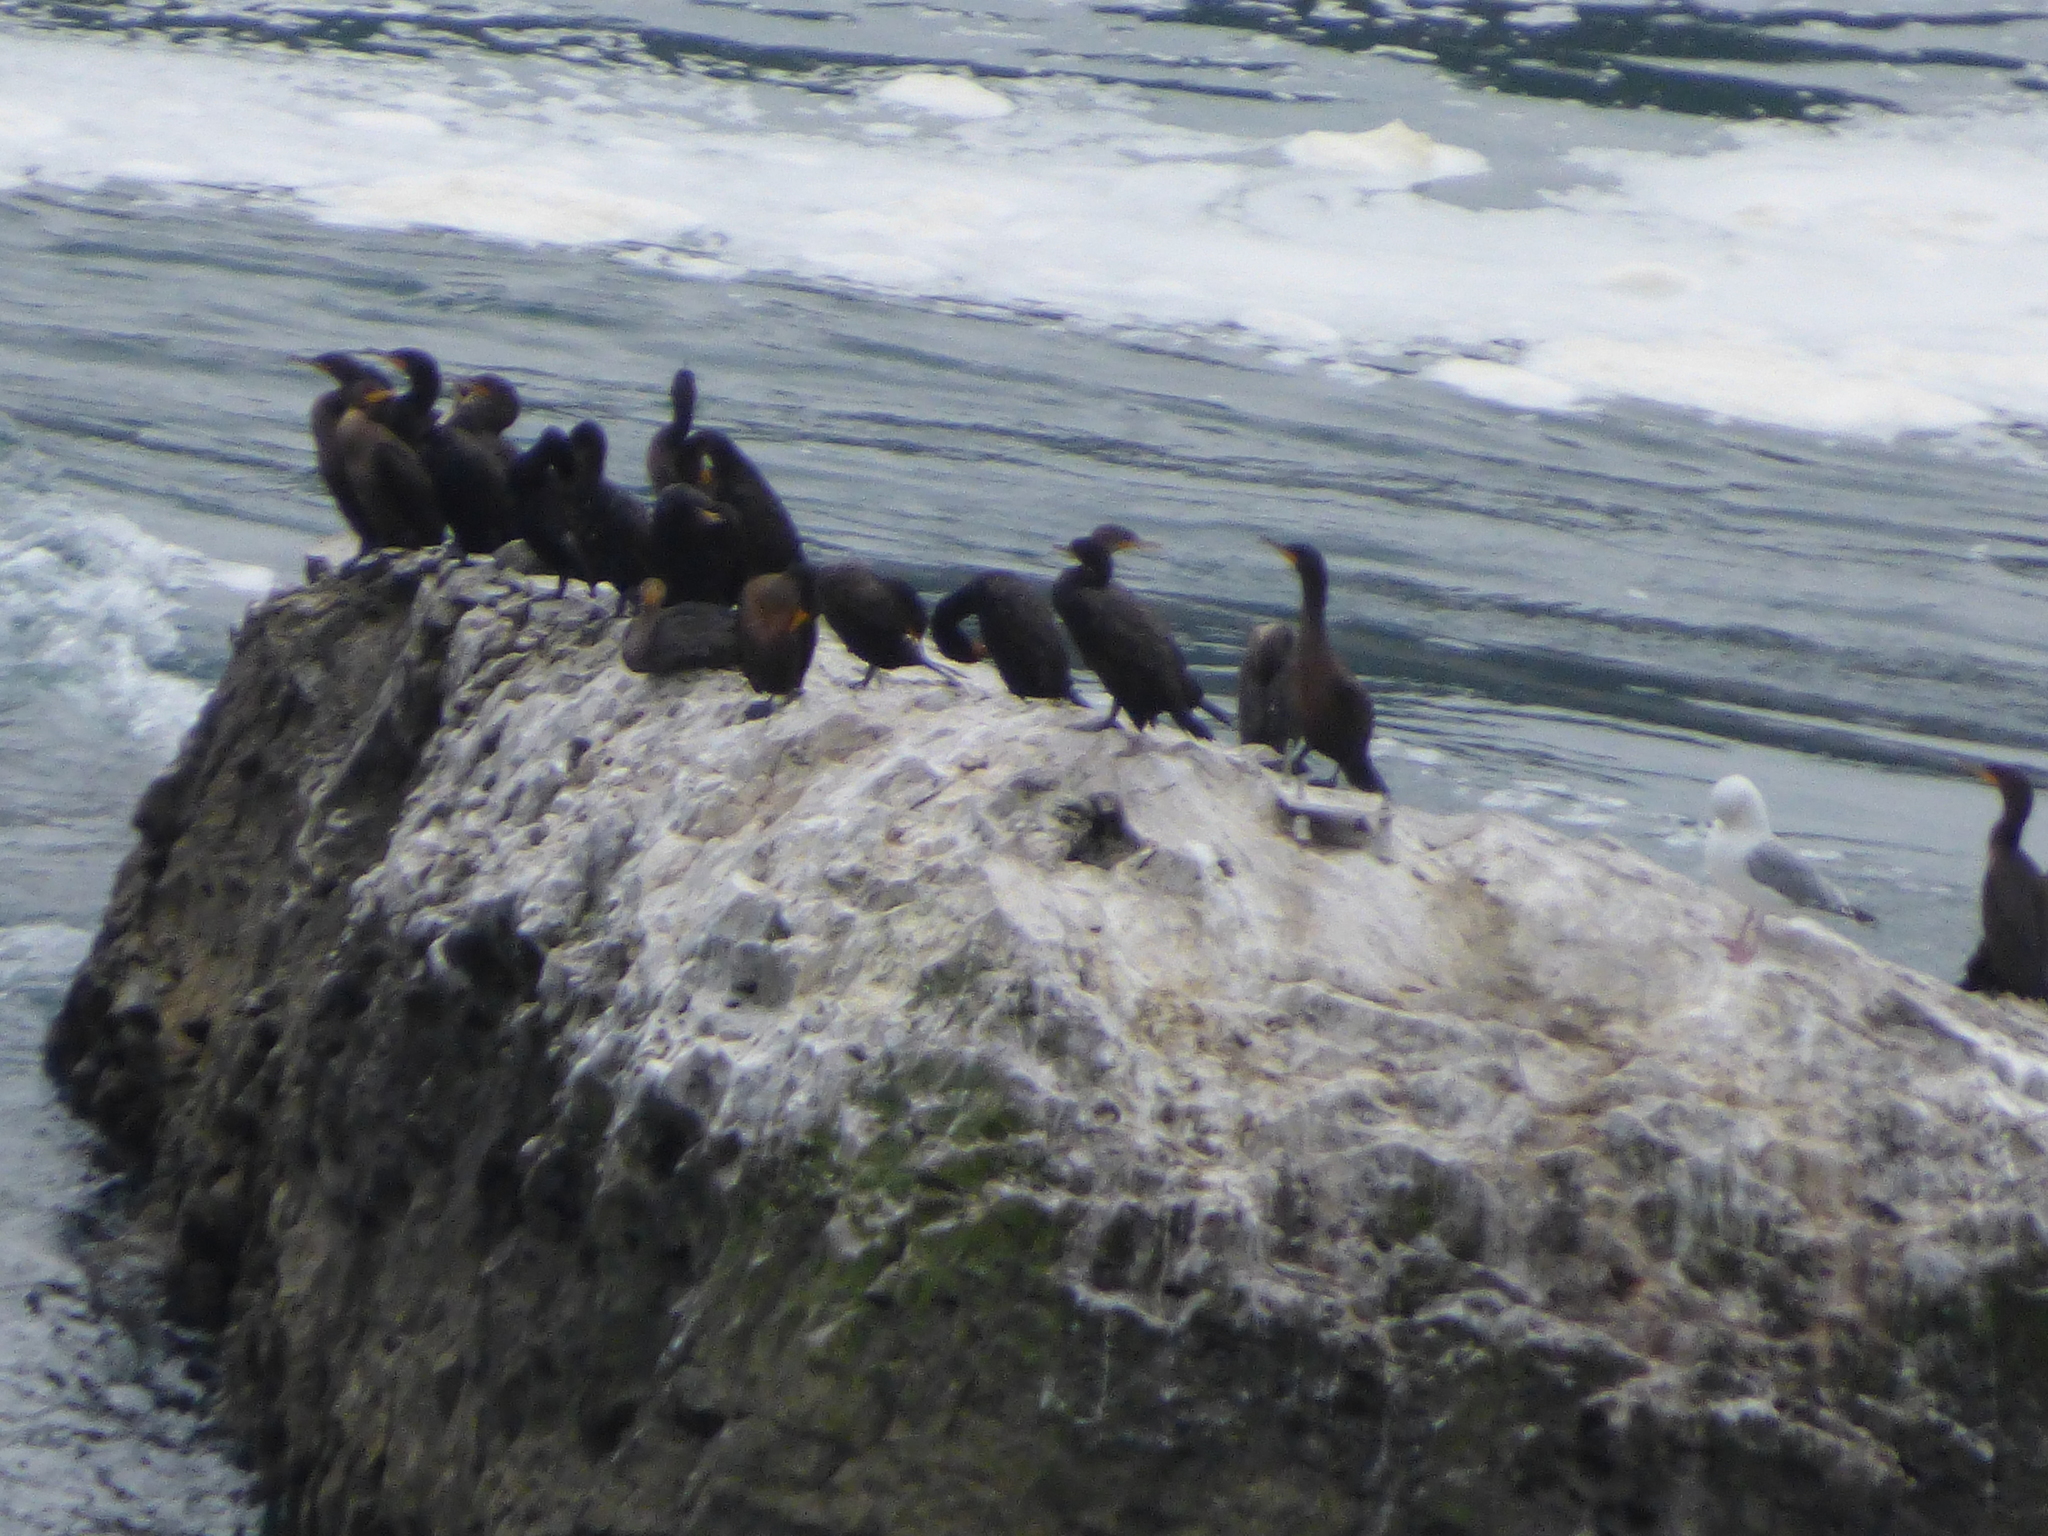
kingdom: Animalia
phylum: Chordata
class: Aves
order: Suliformes
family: Phalacrocoracidae
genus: Phalacrocorax
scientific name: Phalacrocorax auritus
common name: Double-crested cormorant
